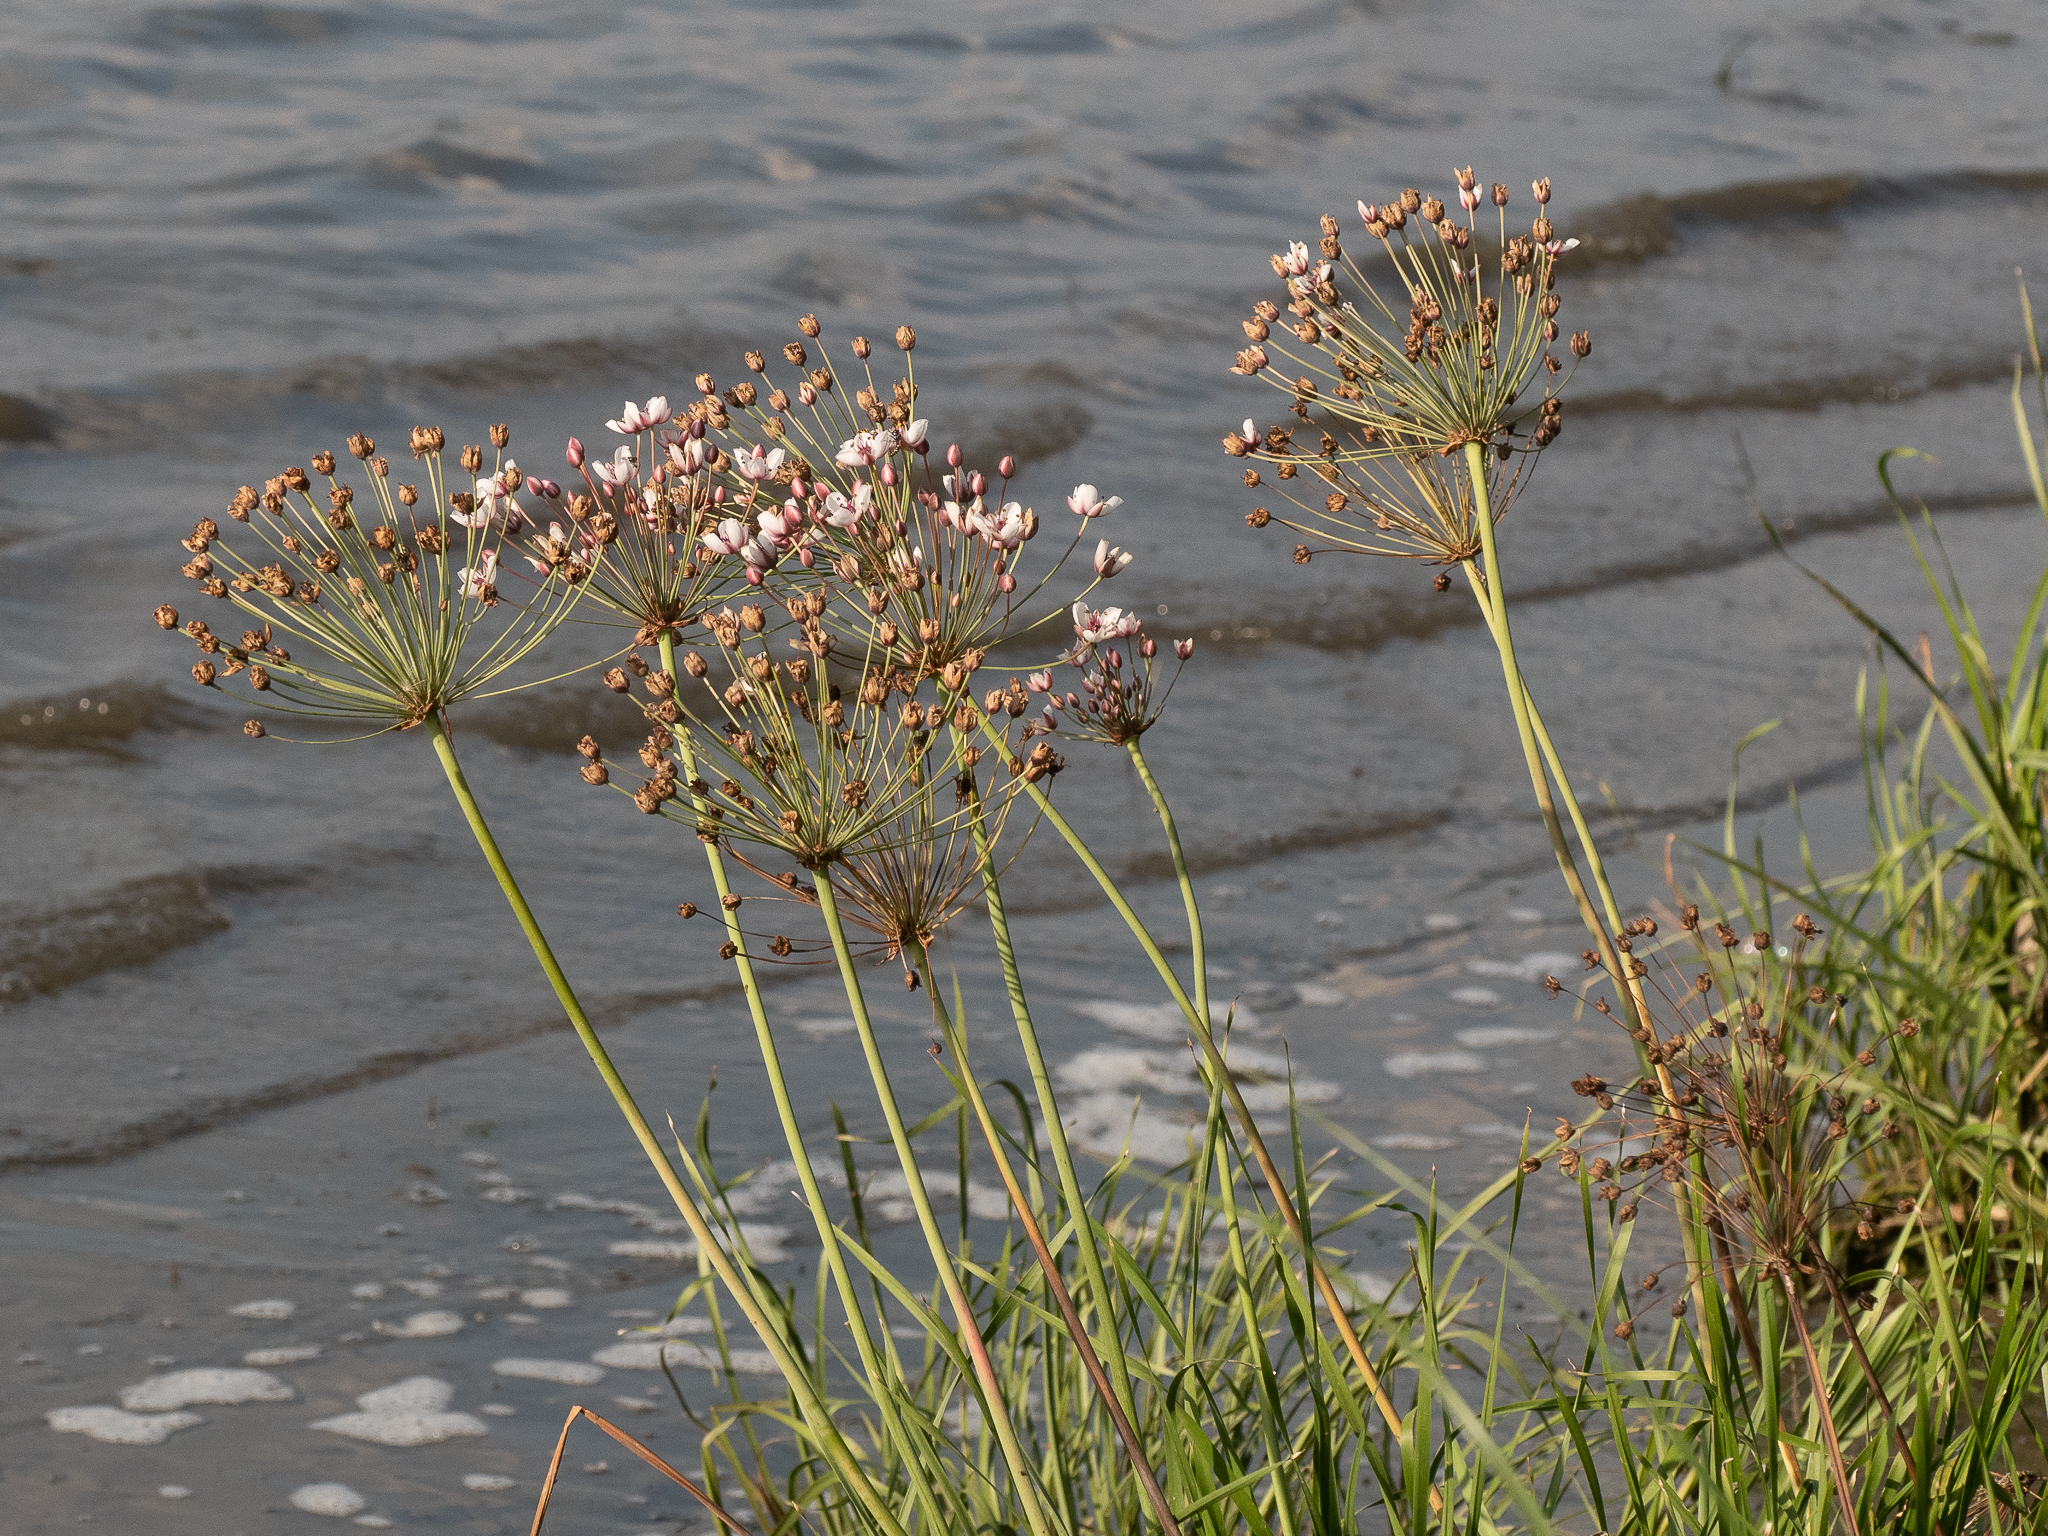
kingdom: Plantae
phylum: Tracheophyta
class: Liliopsida
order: Alismatales
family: Butomaceae
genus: Butomus
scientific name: Butomus umbellatus
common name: Flowering-rush
